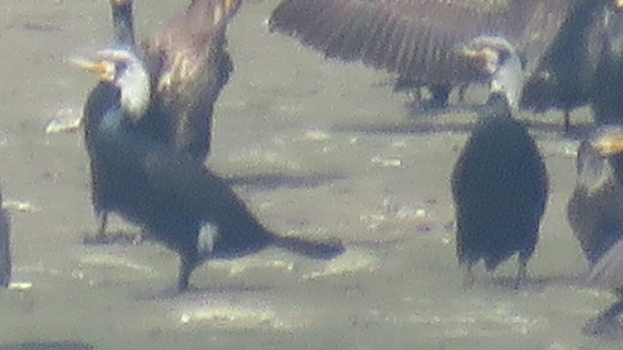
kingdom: Animalia
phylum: Chordata
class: Aves
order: Suliformes
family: Phalacrocoracidae
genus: Phalacrocorax
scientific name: Phalacrocorax carbo
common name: Great cormorant
